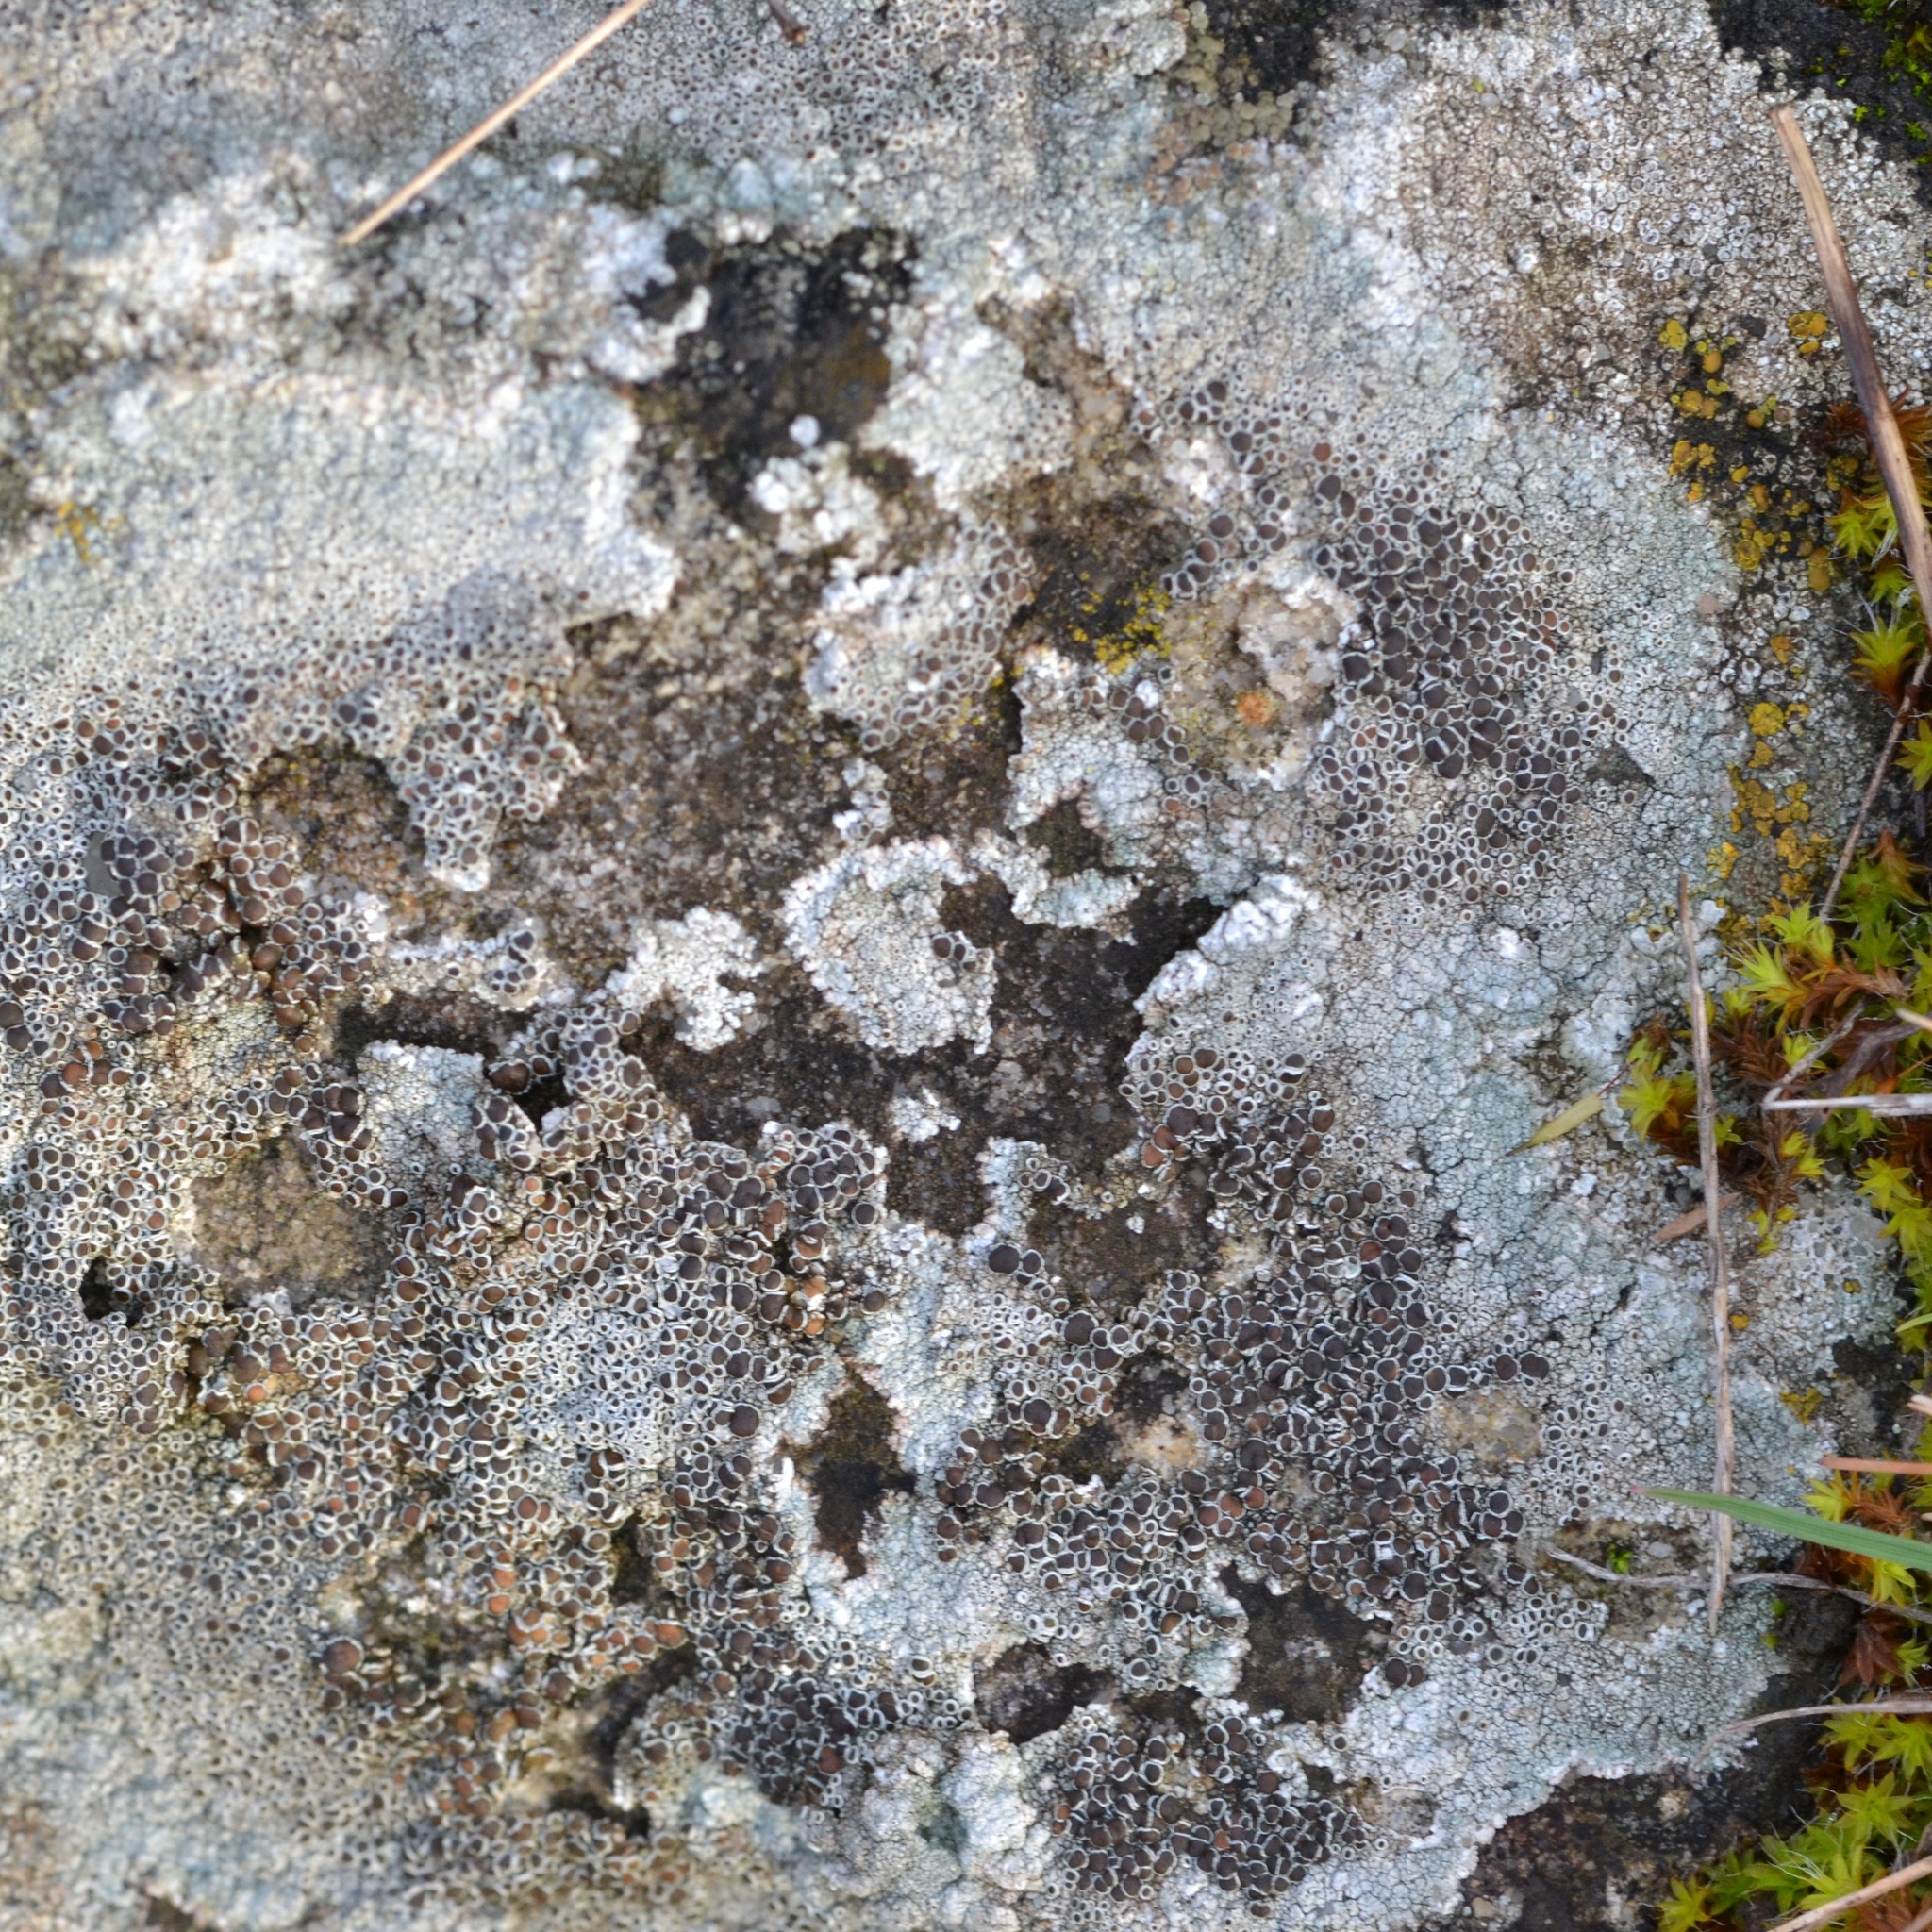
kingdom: Fungi
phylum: Ascomycota
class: Lecanoromycetes
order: Lecanorales
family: Lecanoraceae
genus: Lecanora
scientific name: Lecanora campestris
